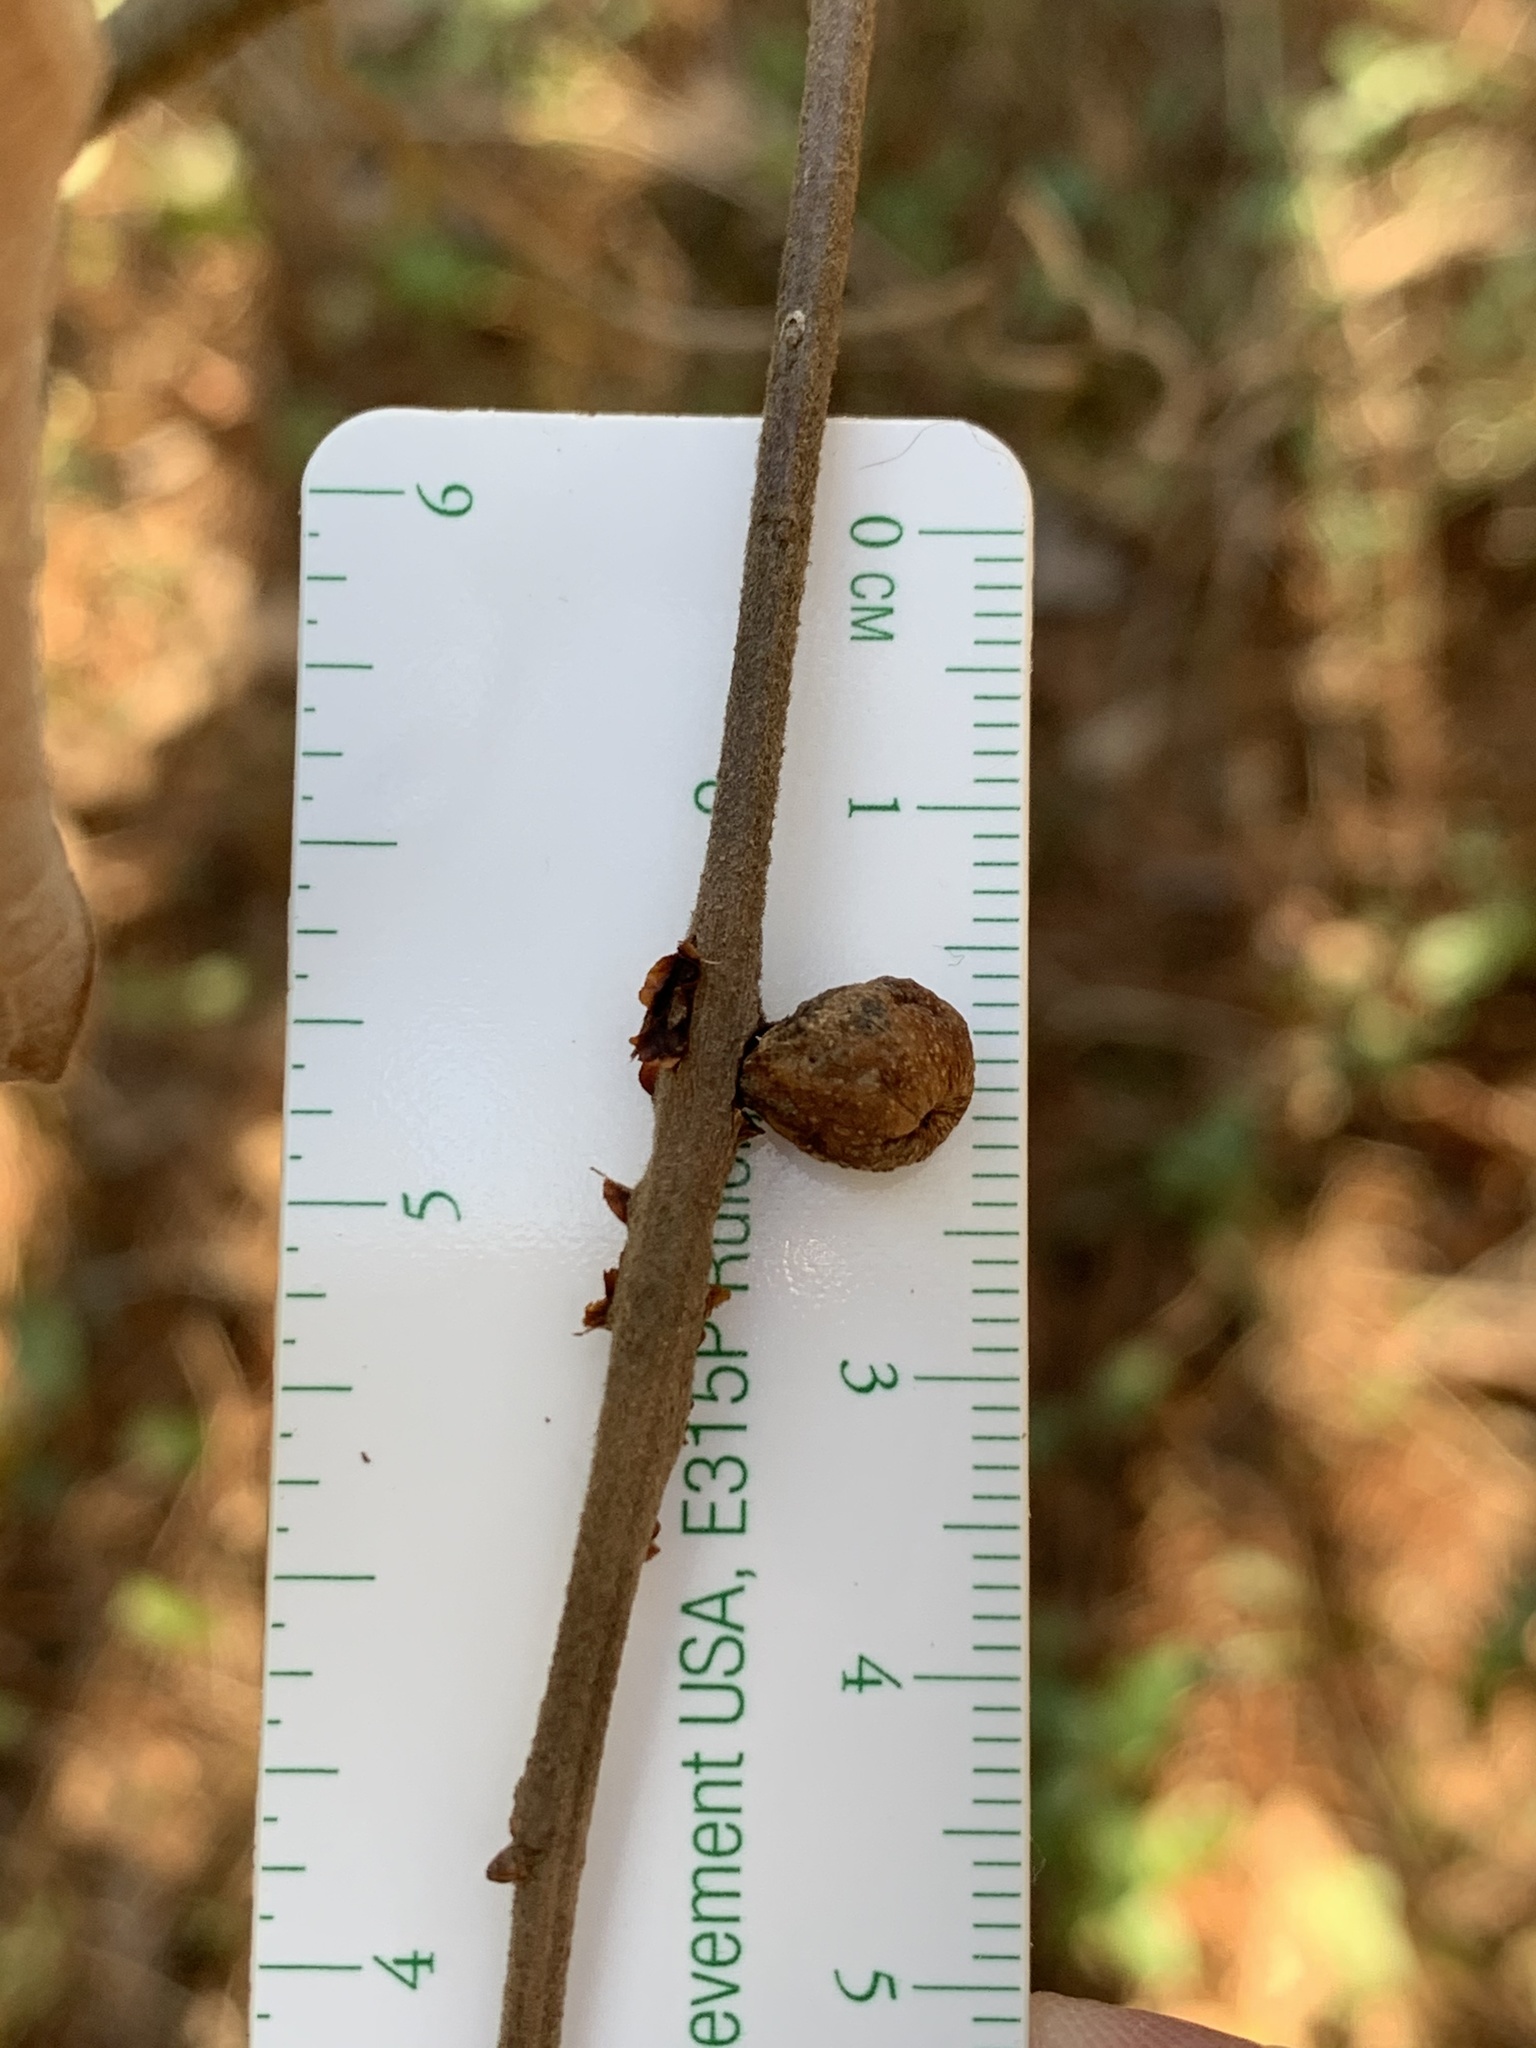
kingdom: Animalia
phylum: Arthropoda
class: Insecta
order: Hymenoptera
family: Cynipidae
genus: Callirhytis
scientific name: Callirhytis
